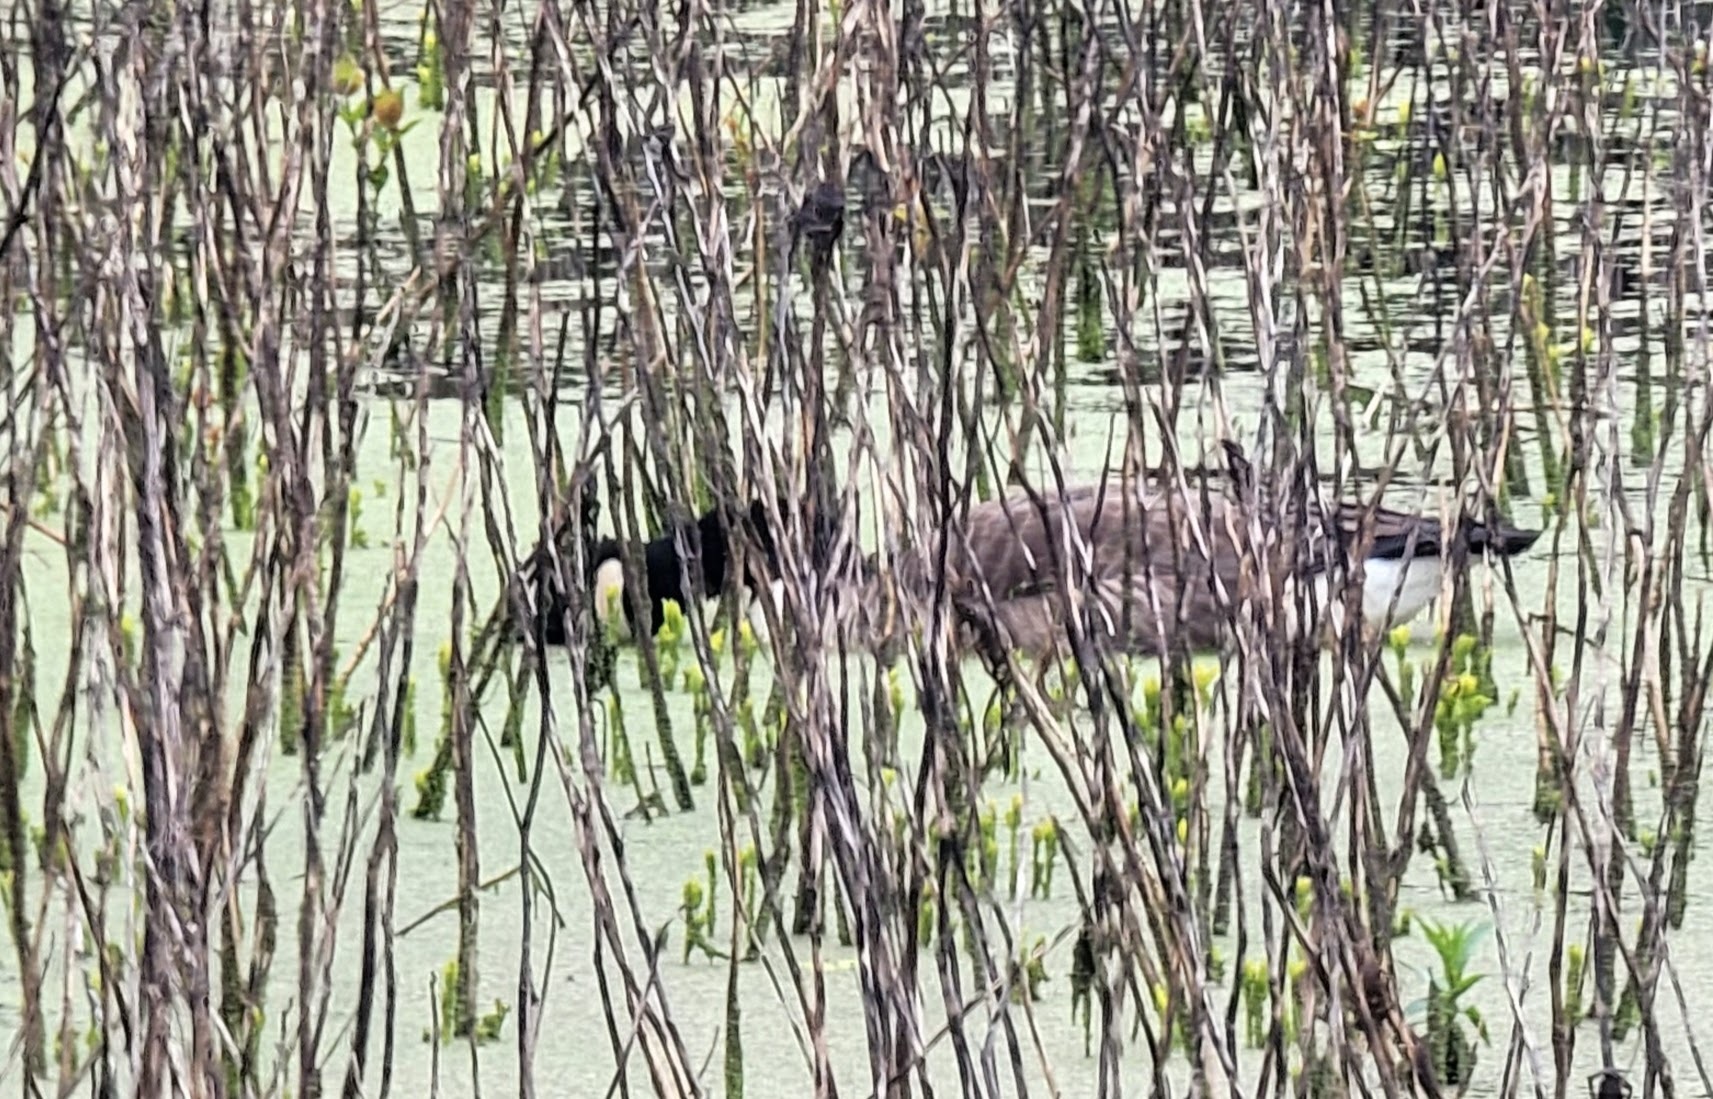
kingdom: Animalia
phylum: Chordata
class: Aves
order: Anseriformes
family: Anatidae
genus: Branta
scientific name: Branta canadensis
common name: Canada goose
